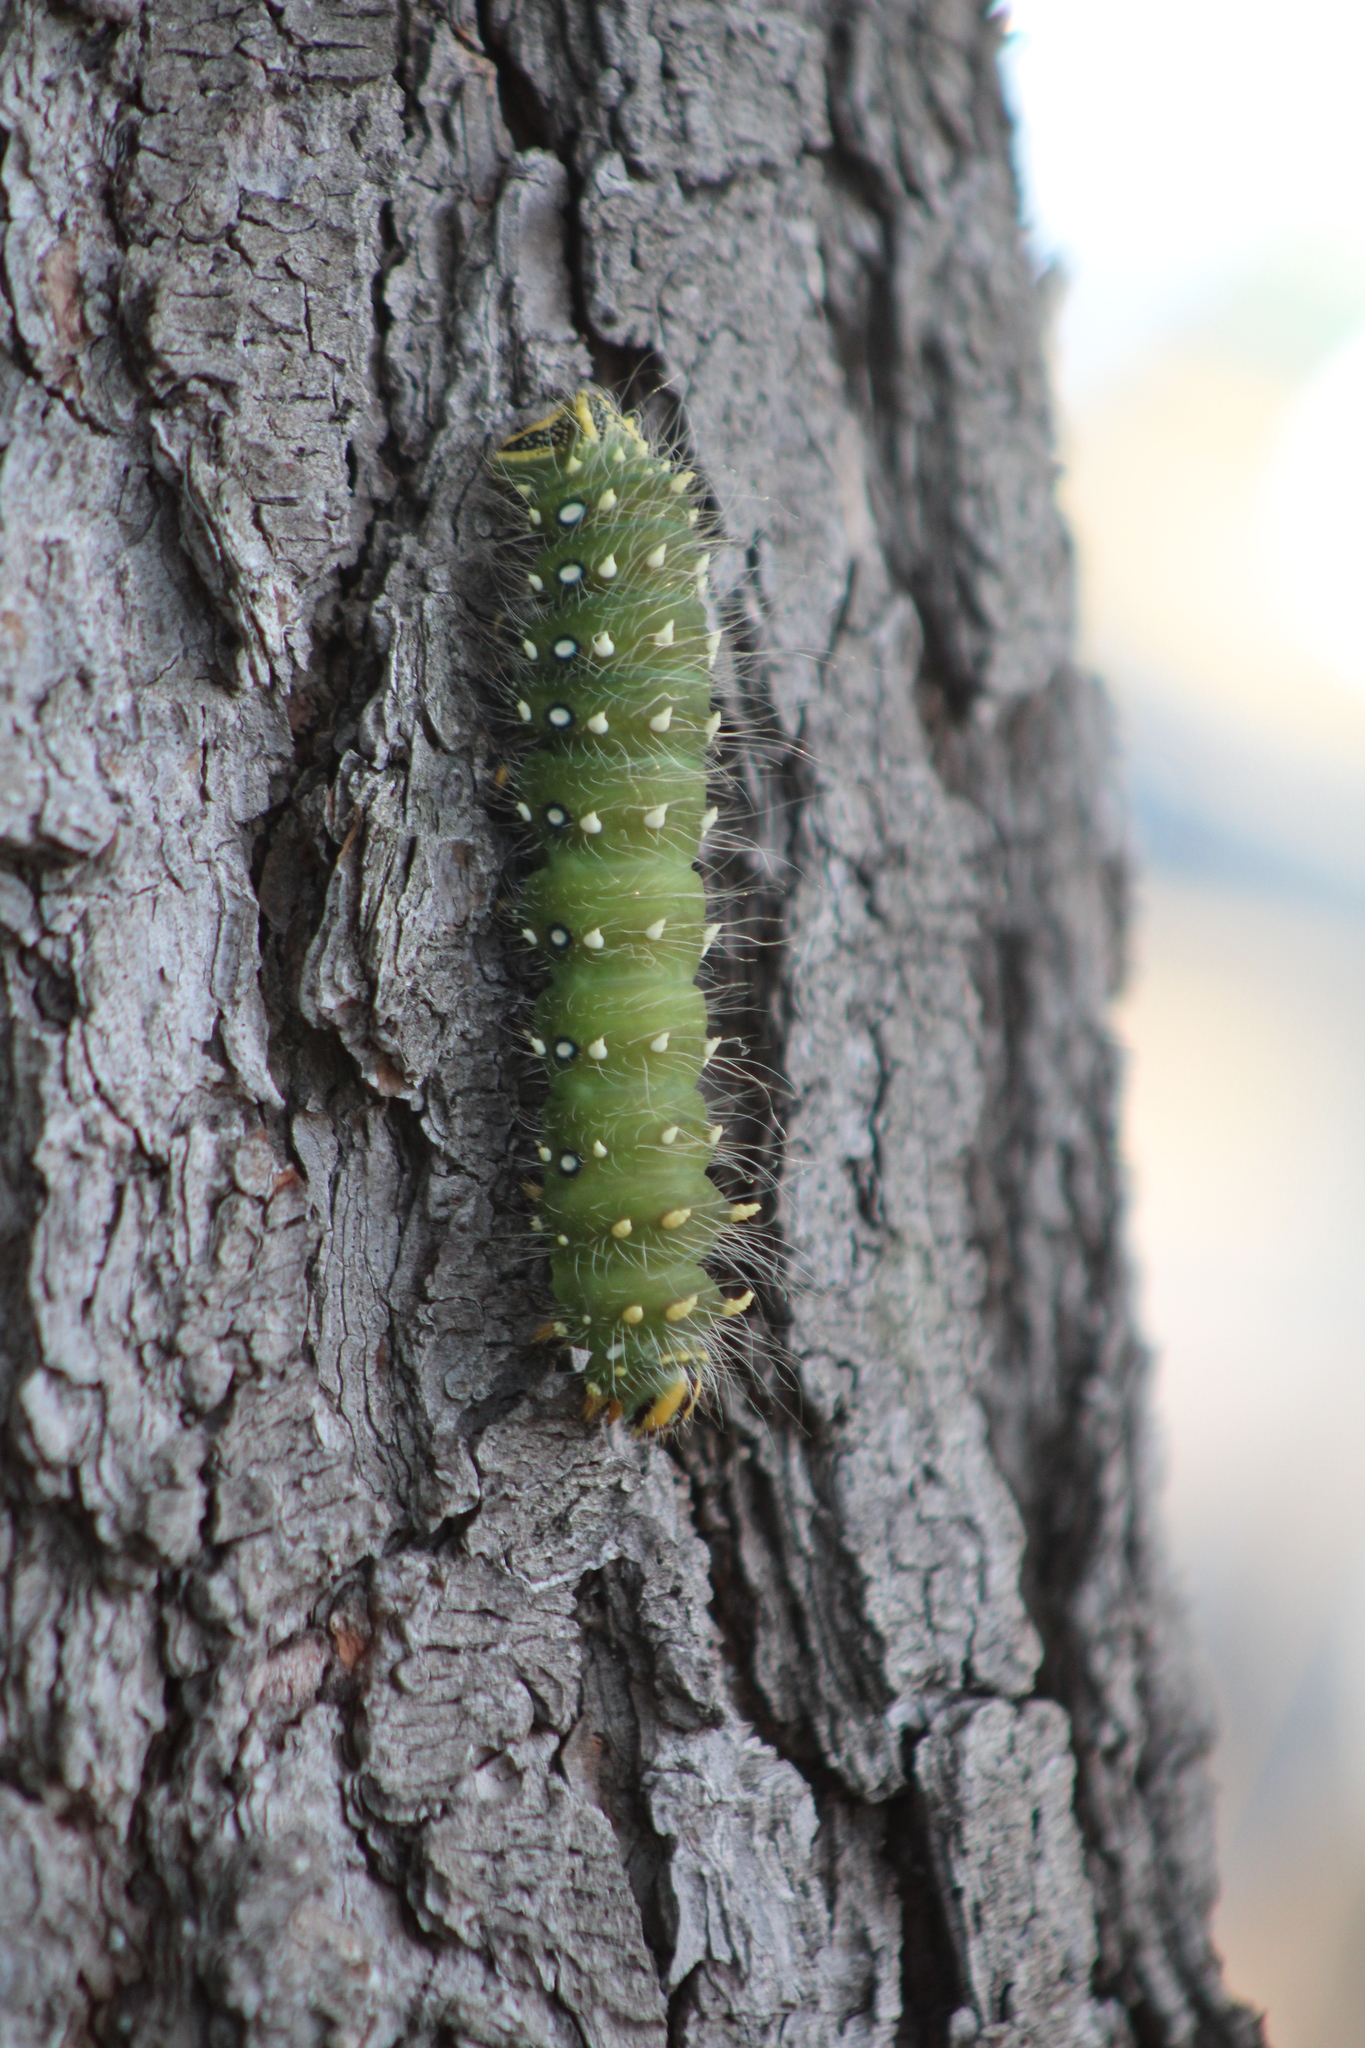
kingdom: Animalia
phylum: Arthropoda
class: Insecta
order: Lepidoptera
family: Saturniidae
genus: Eacles
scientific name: Eacles
